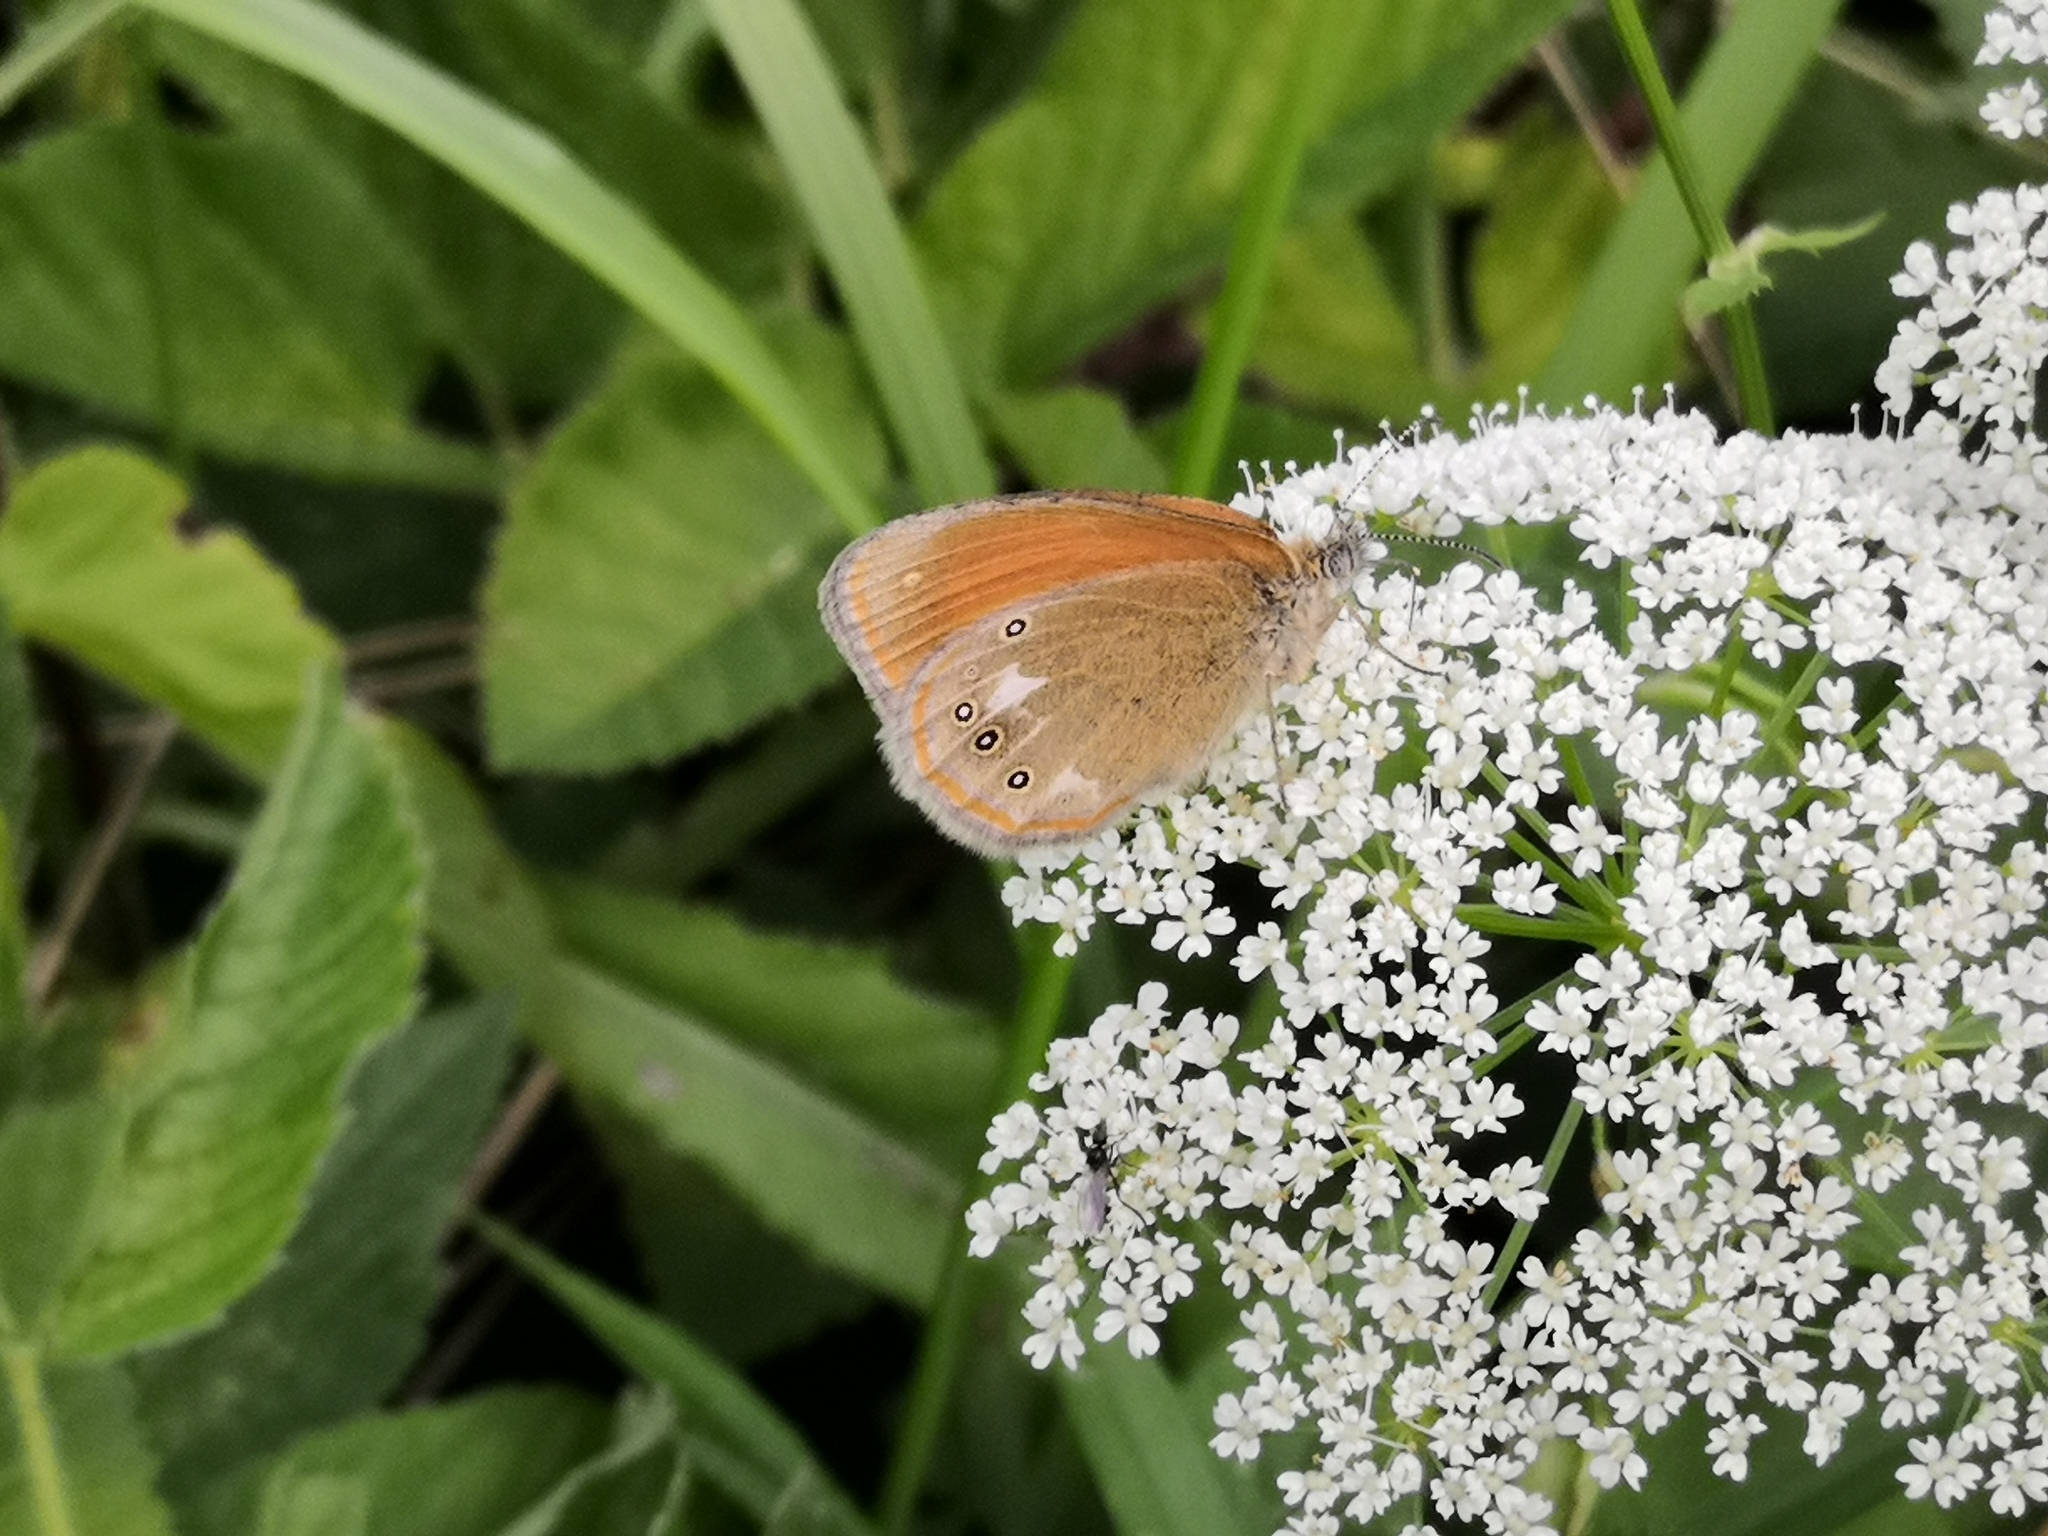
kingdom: Animalia
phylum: Arthropoda
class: Insecta
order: Lepidoptera
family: Nymphalidae
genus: Coenonympha
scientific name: Coenonympha iphis
